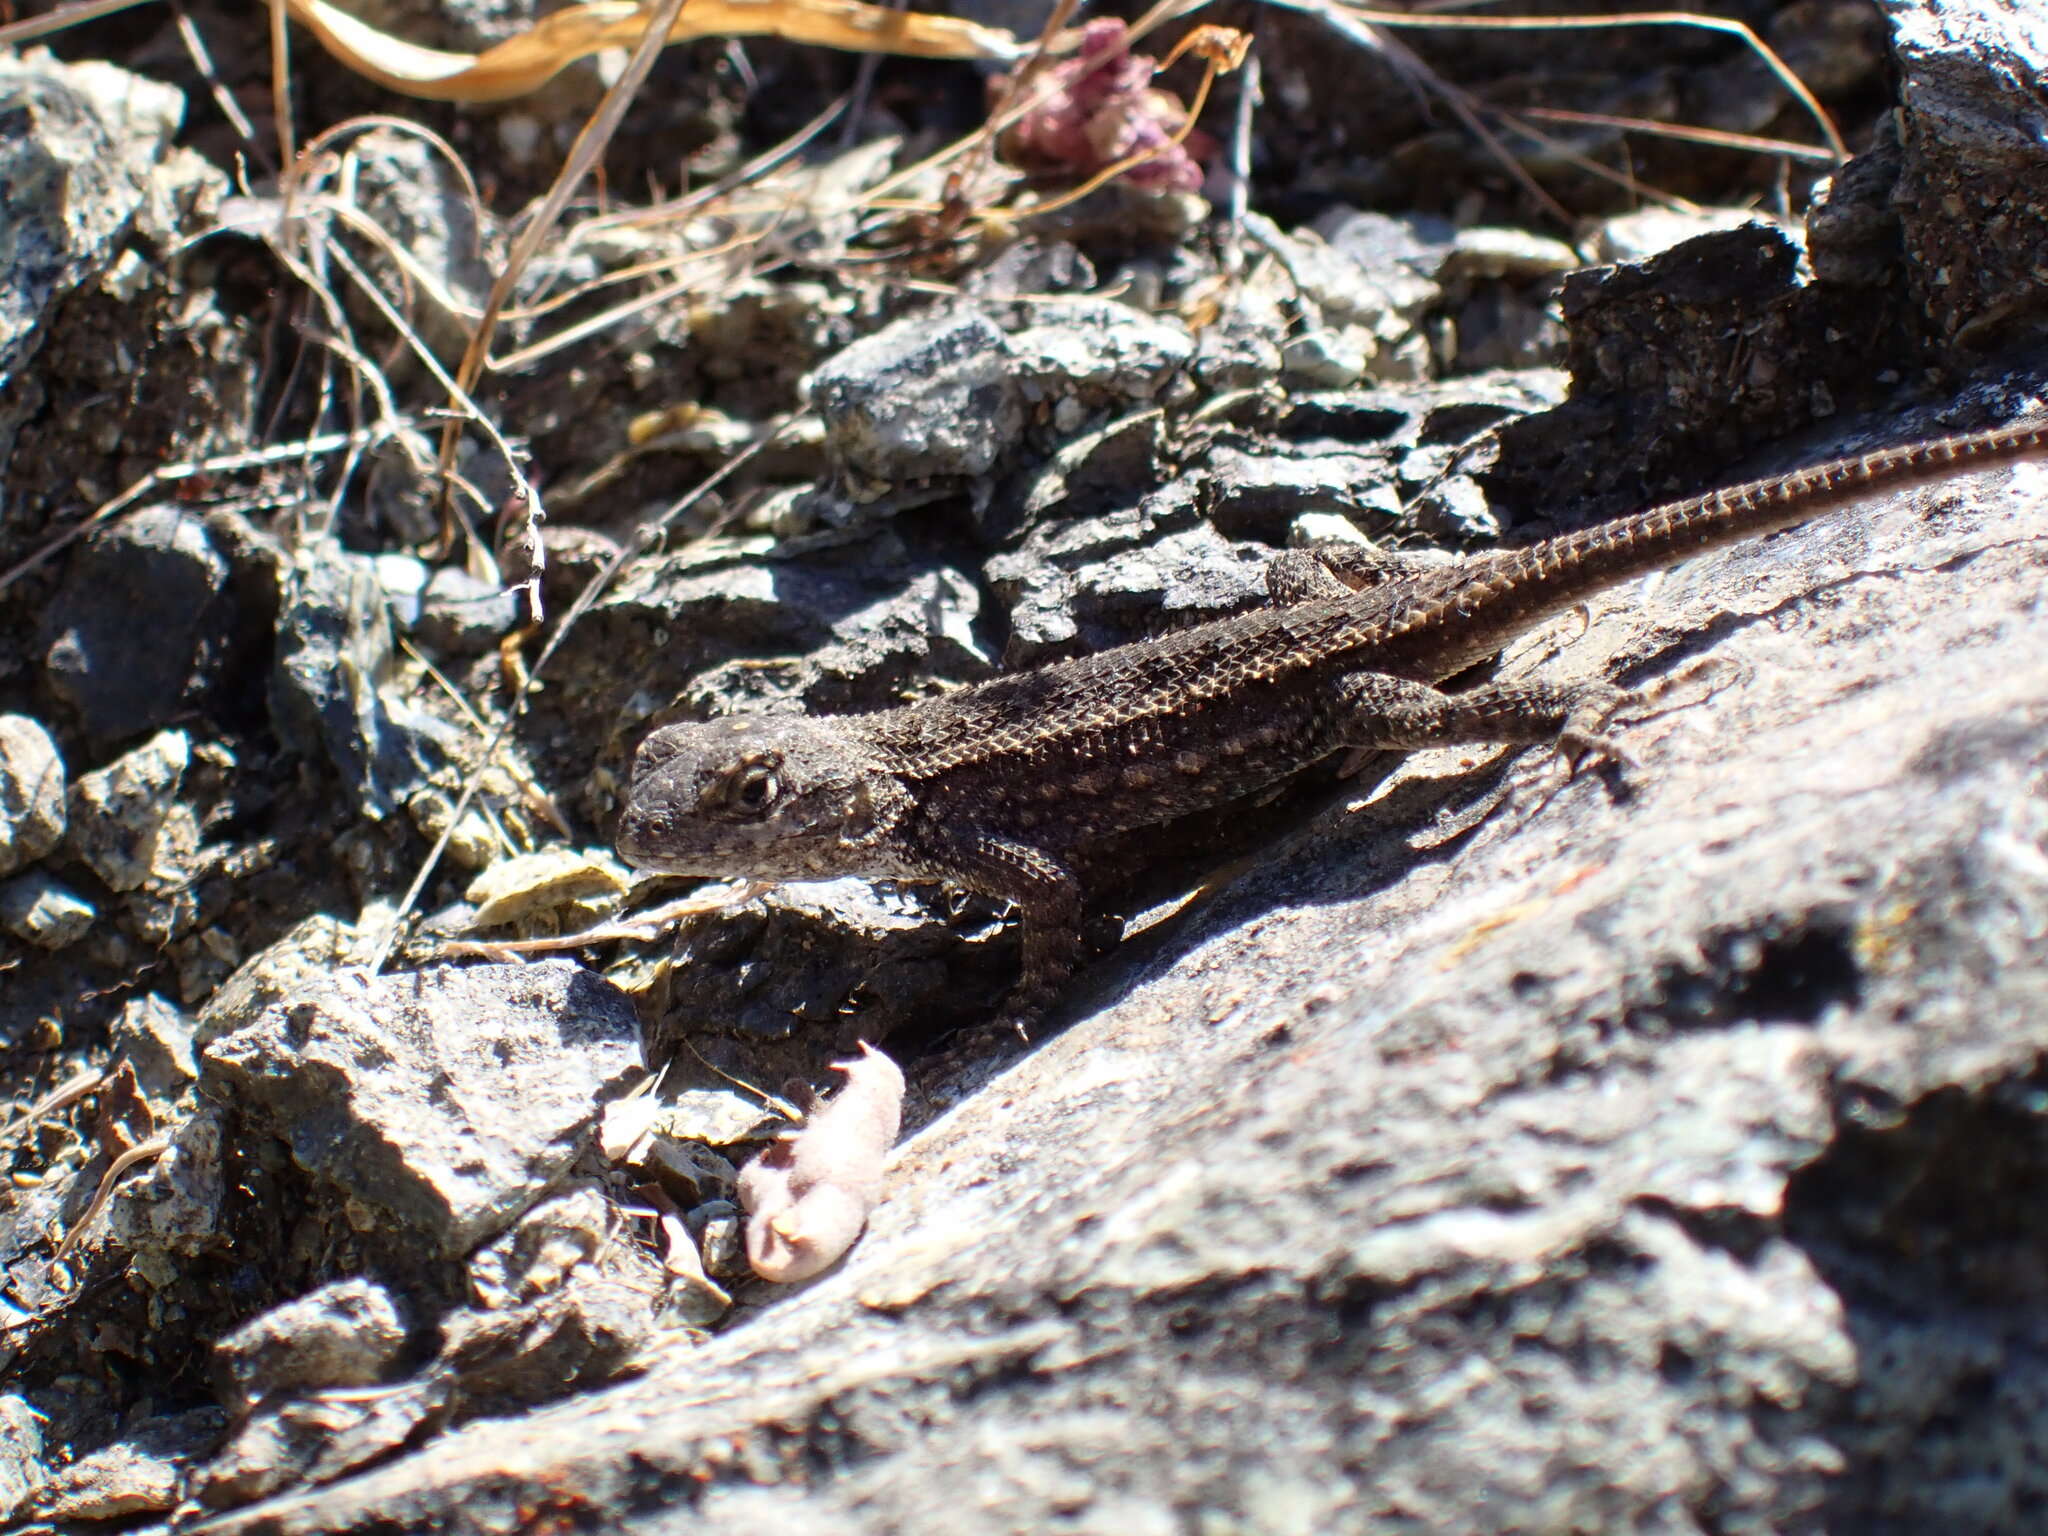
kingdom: Animalia
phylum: Chordata
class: Squamata
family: Phrynosomatidae
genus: Sceloporus
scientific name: Sceloporus occidentalis
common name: Western fence lizard
